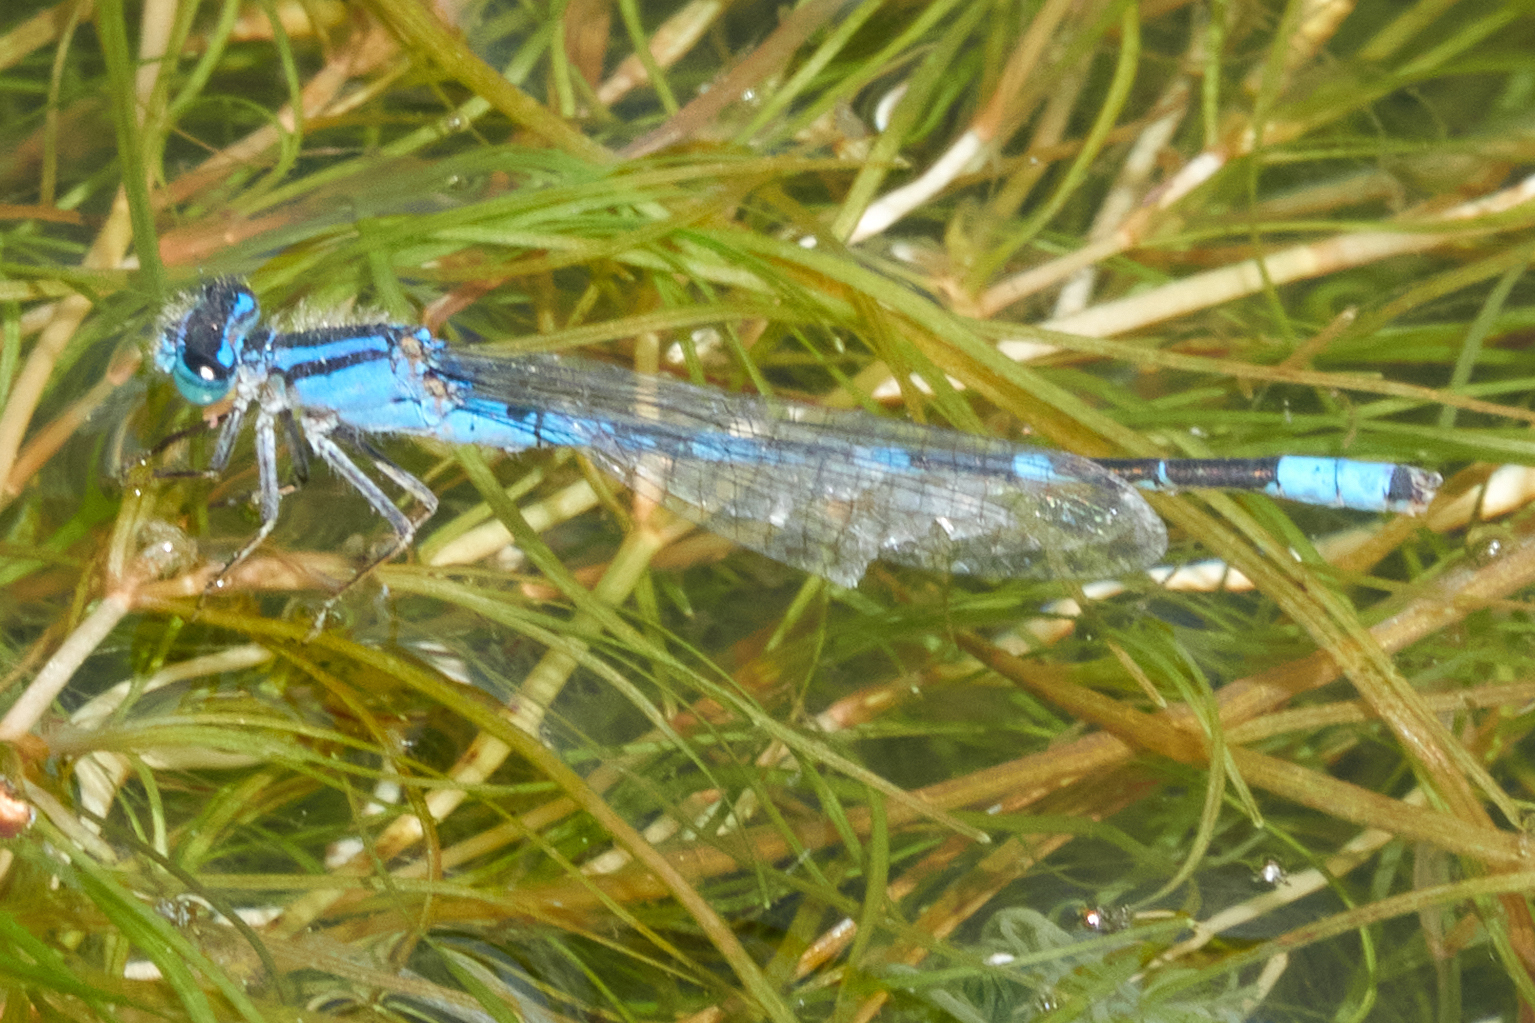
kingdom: Animalia
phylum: Arthropoda
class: Insecta
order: Odonata
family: Coenagrionidae
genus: Enallagma
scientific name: Enallagma carunculatum
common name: Tule bluet
